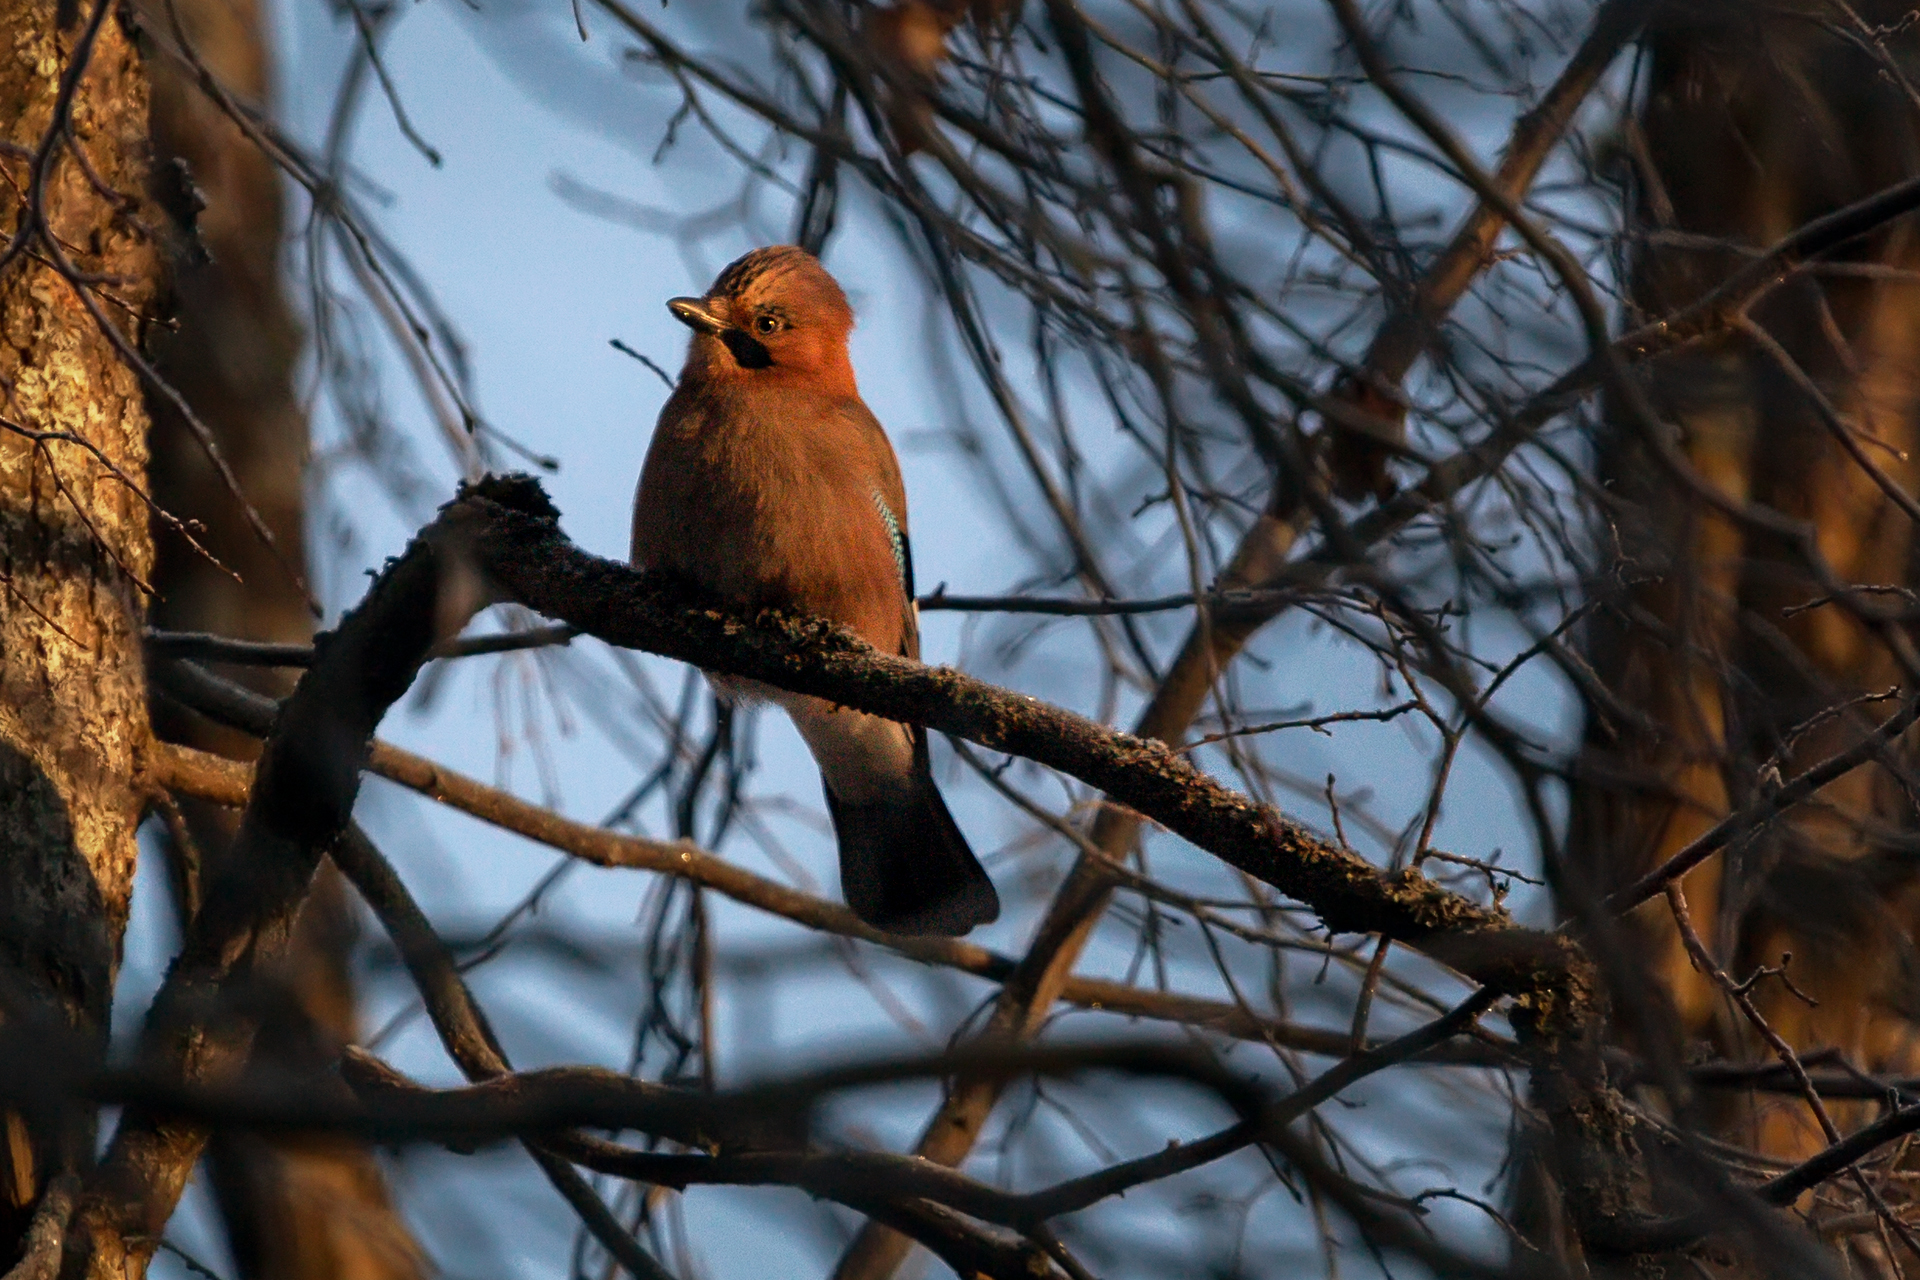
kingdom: Animalia
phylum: Chordata
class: Aves
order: Passeriformes
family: Corvidae
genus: Garrulus
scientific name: Garrulus glandarius
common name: Eurasian jay
